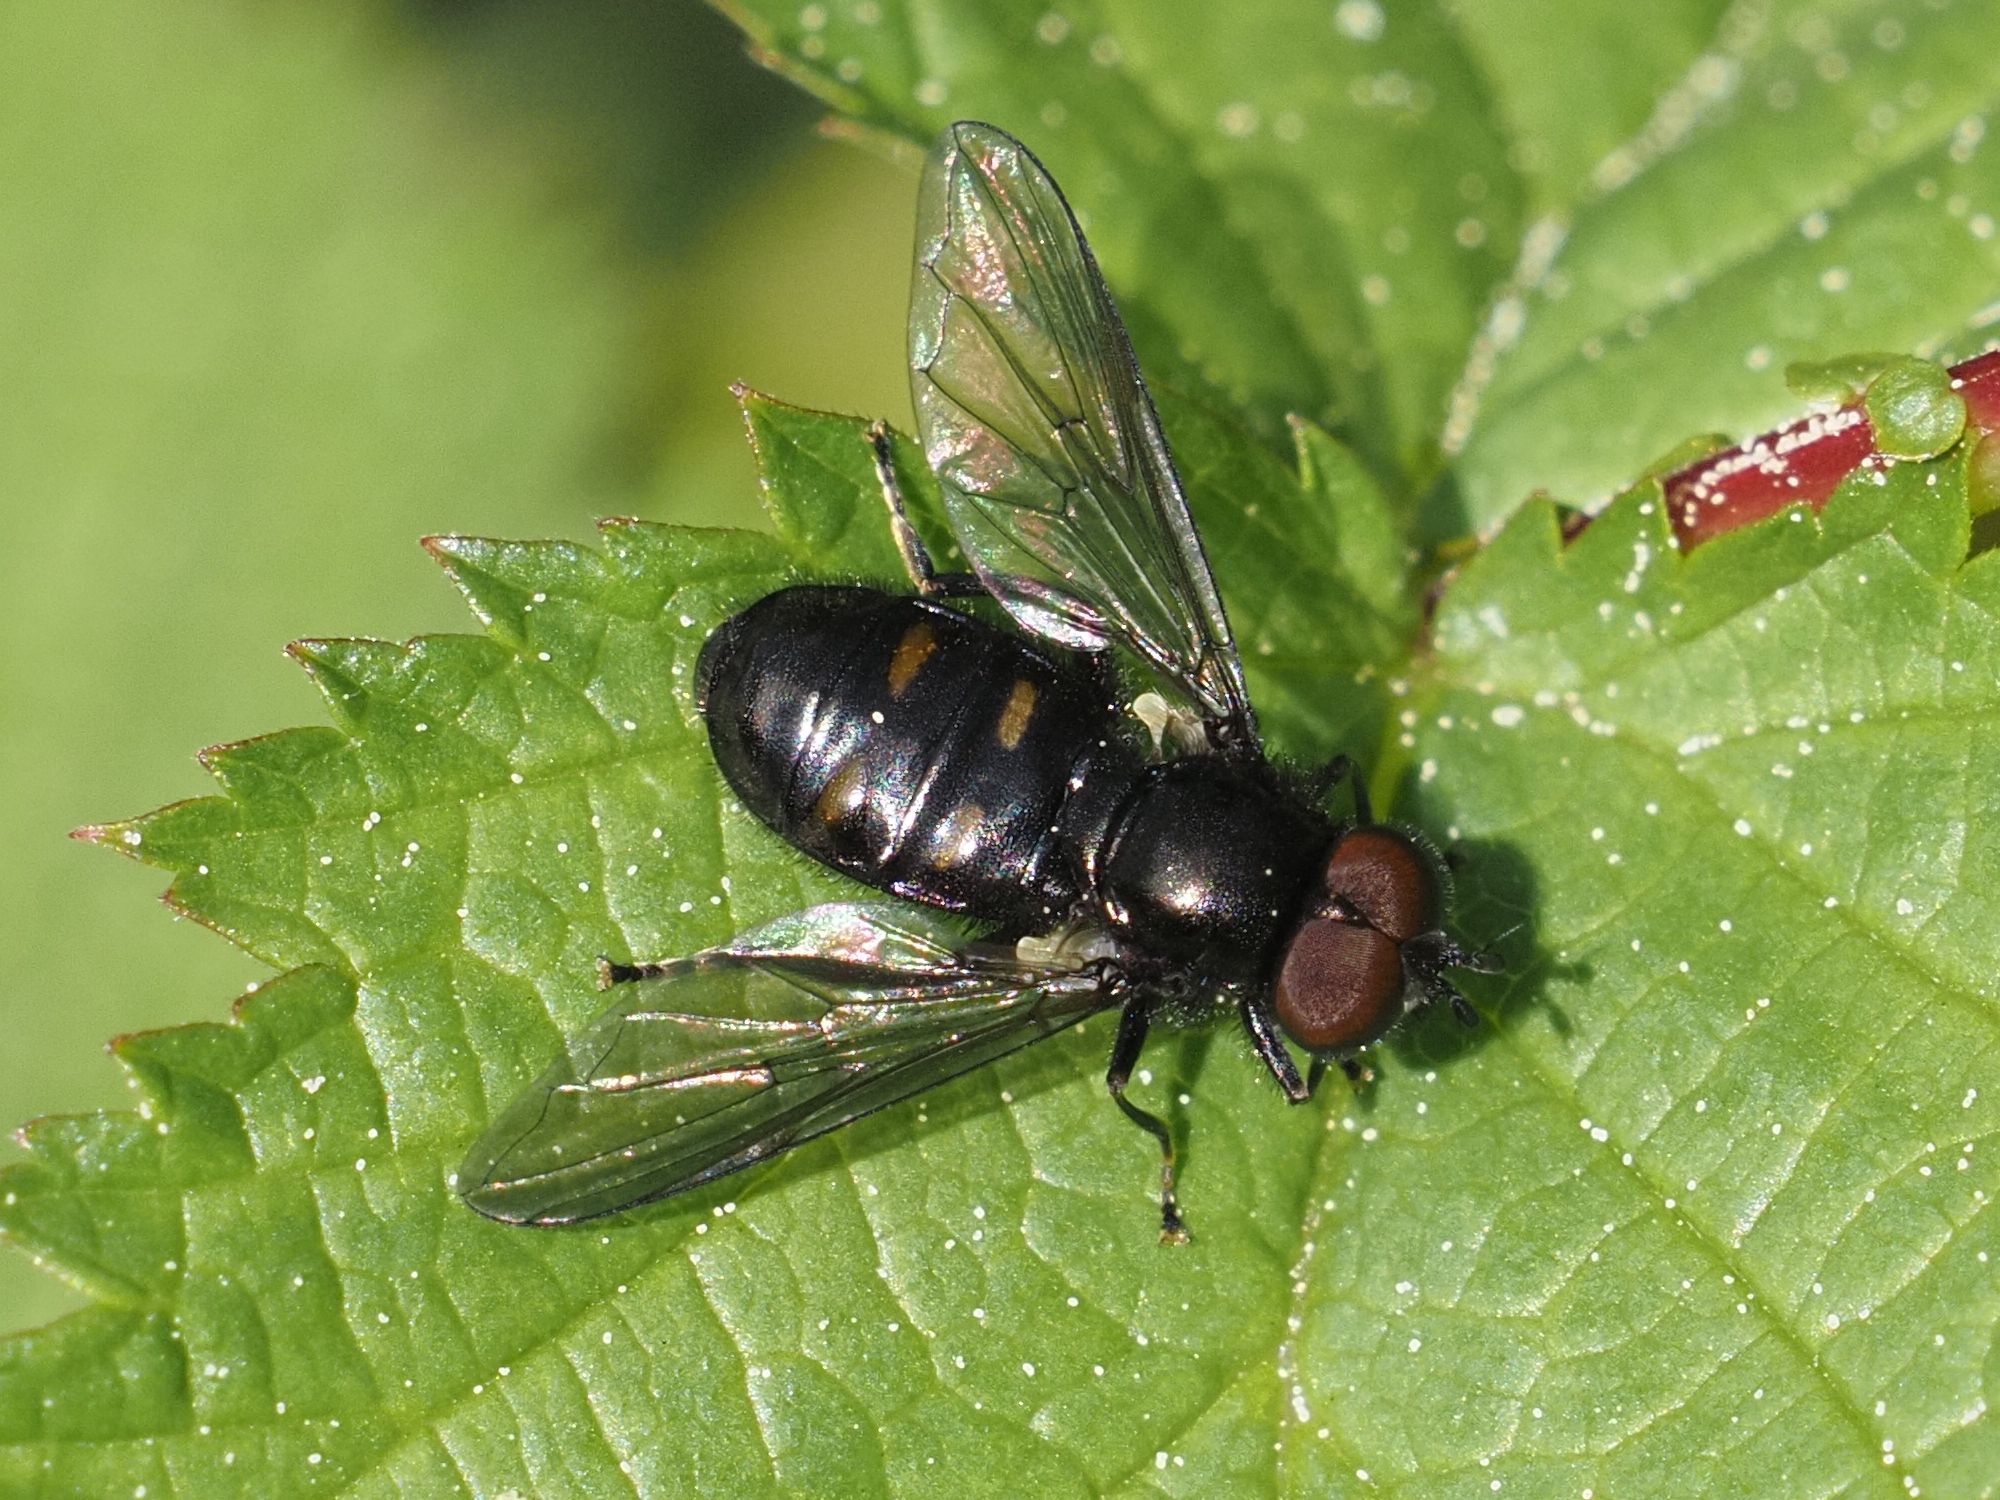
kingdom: Animalia
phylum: Arthropoda
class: Insecta
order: Diptera
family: Syrphidae
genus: Pipiza
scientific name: Pipiza quadrimaculata
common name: Four-spotted pipiza
